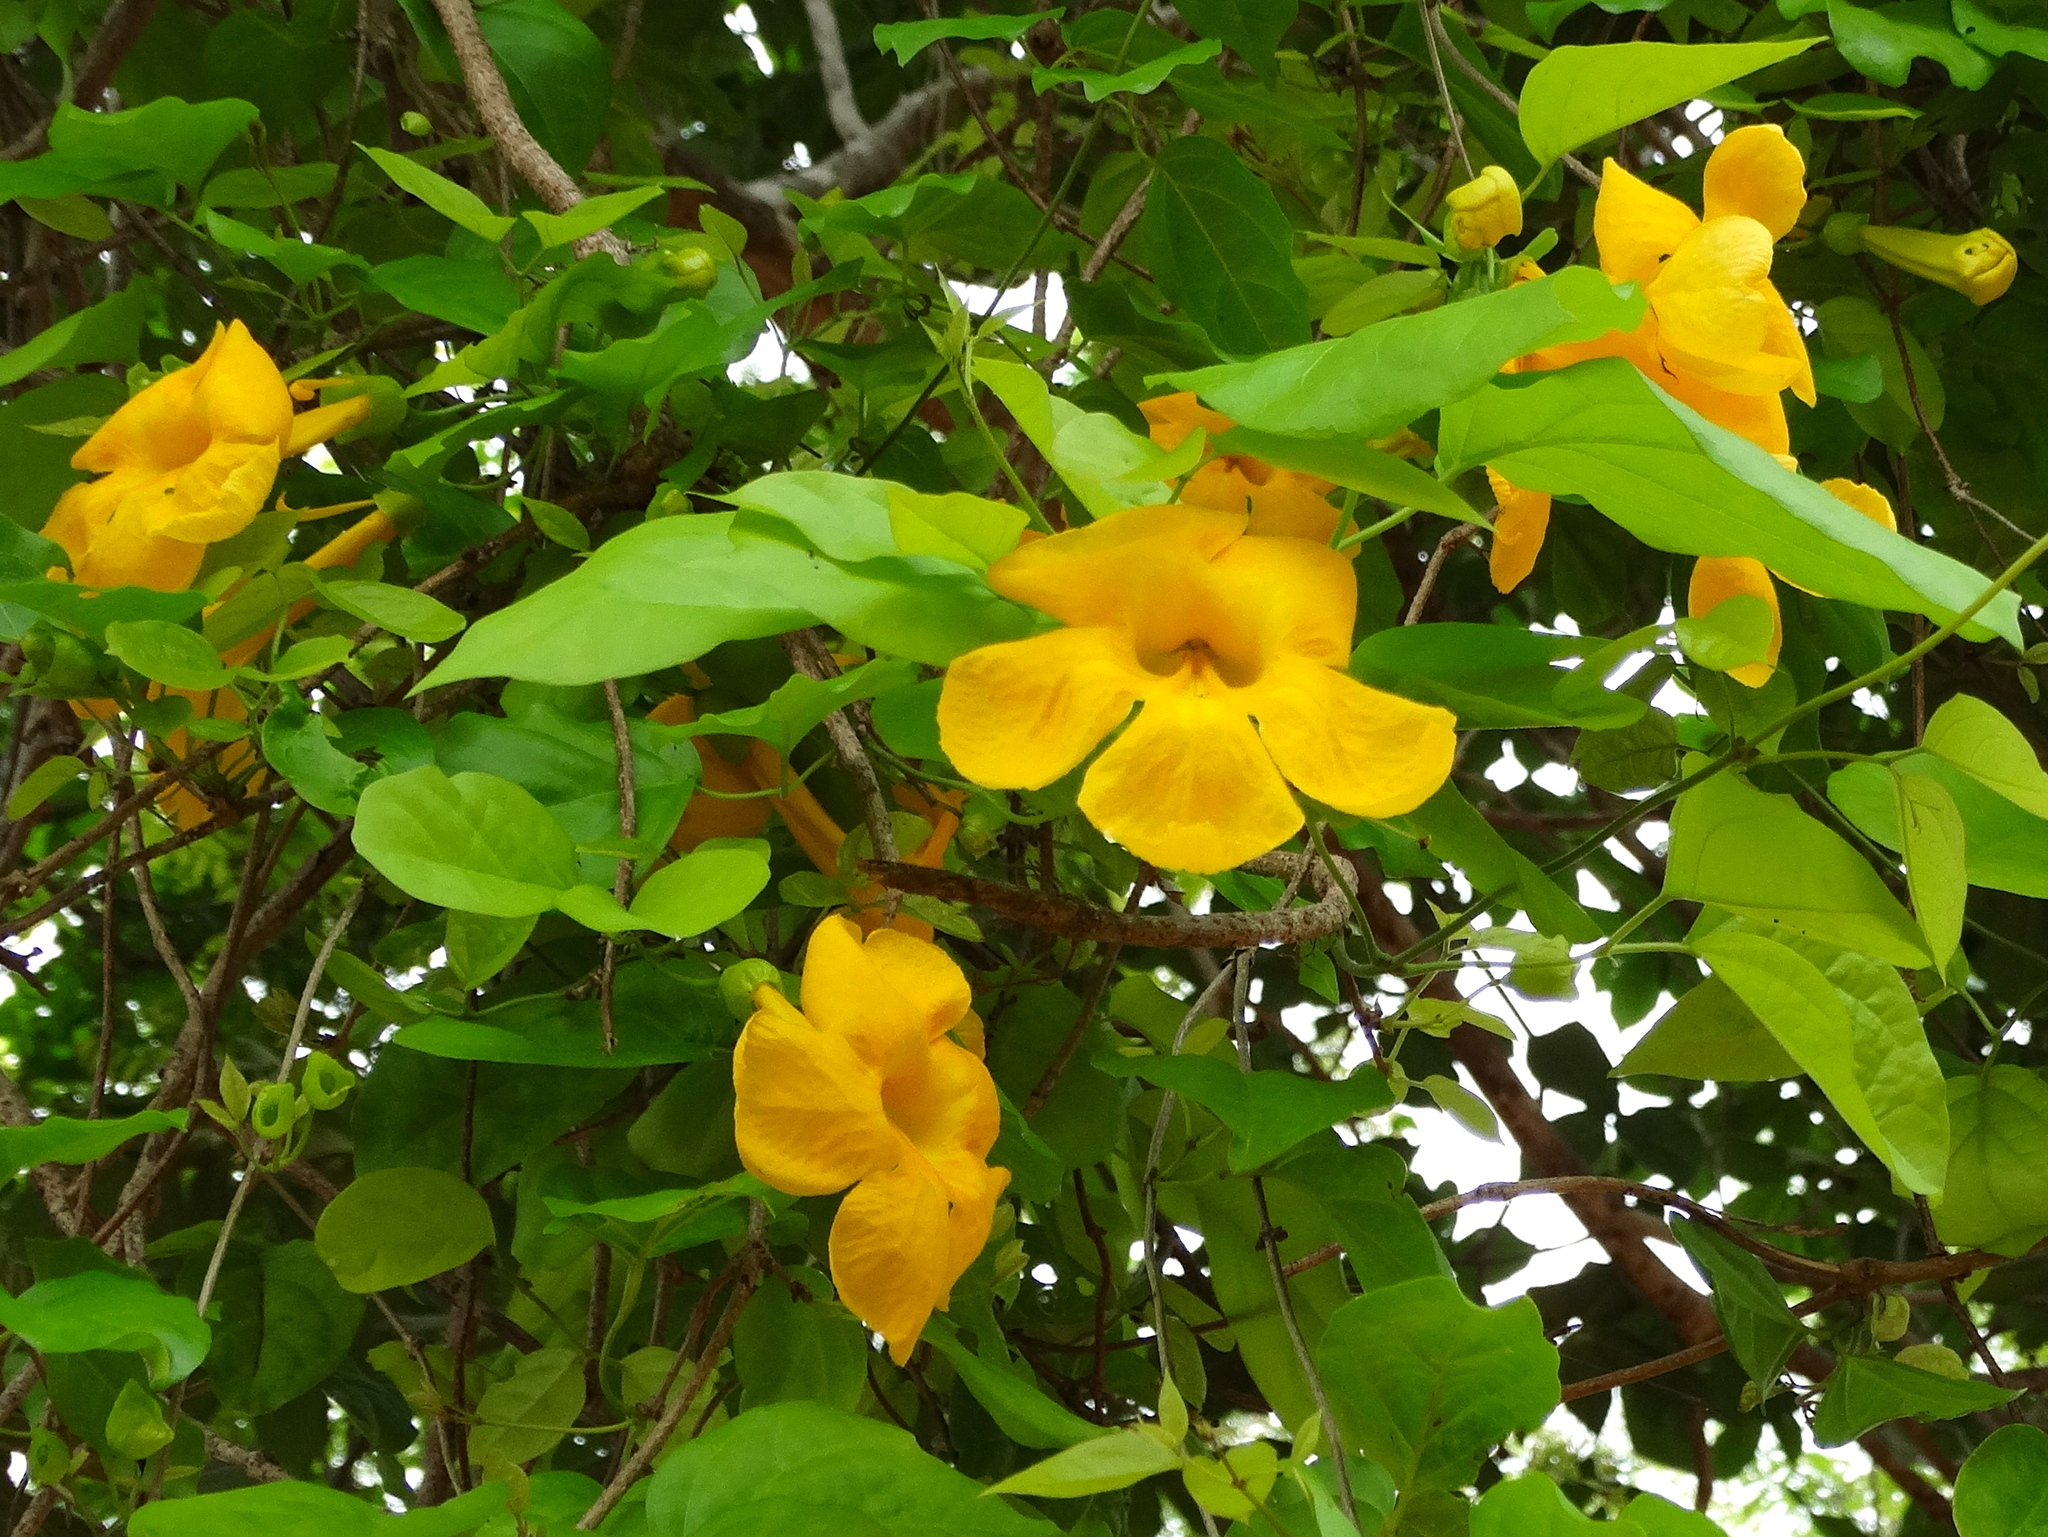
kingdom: Plantae
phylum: Tracheophyta
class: Magnoliopsida
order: Lamiales
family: Bignoniaceae
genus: Dolichandra
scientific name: Dolichandra unguis-cati
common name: Catclaw vine
